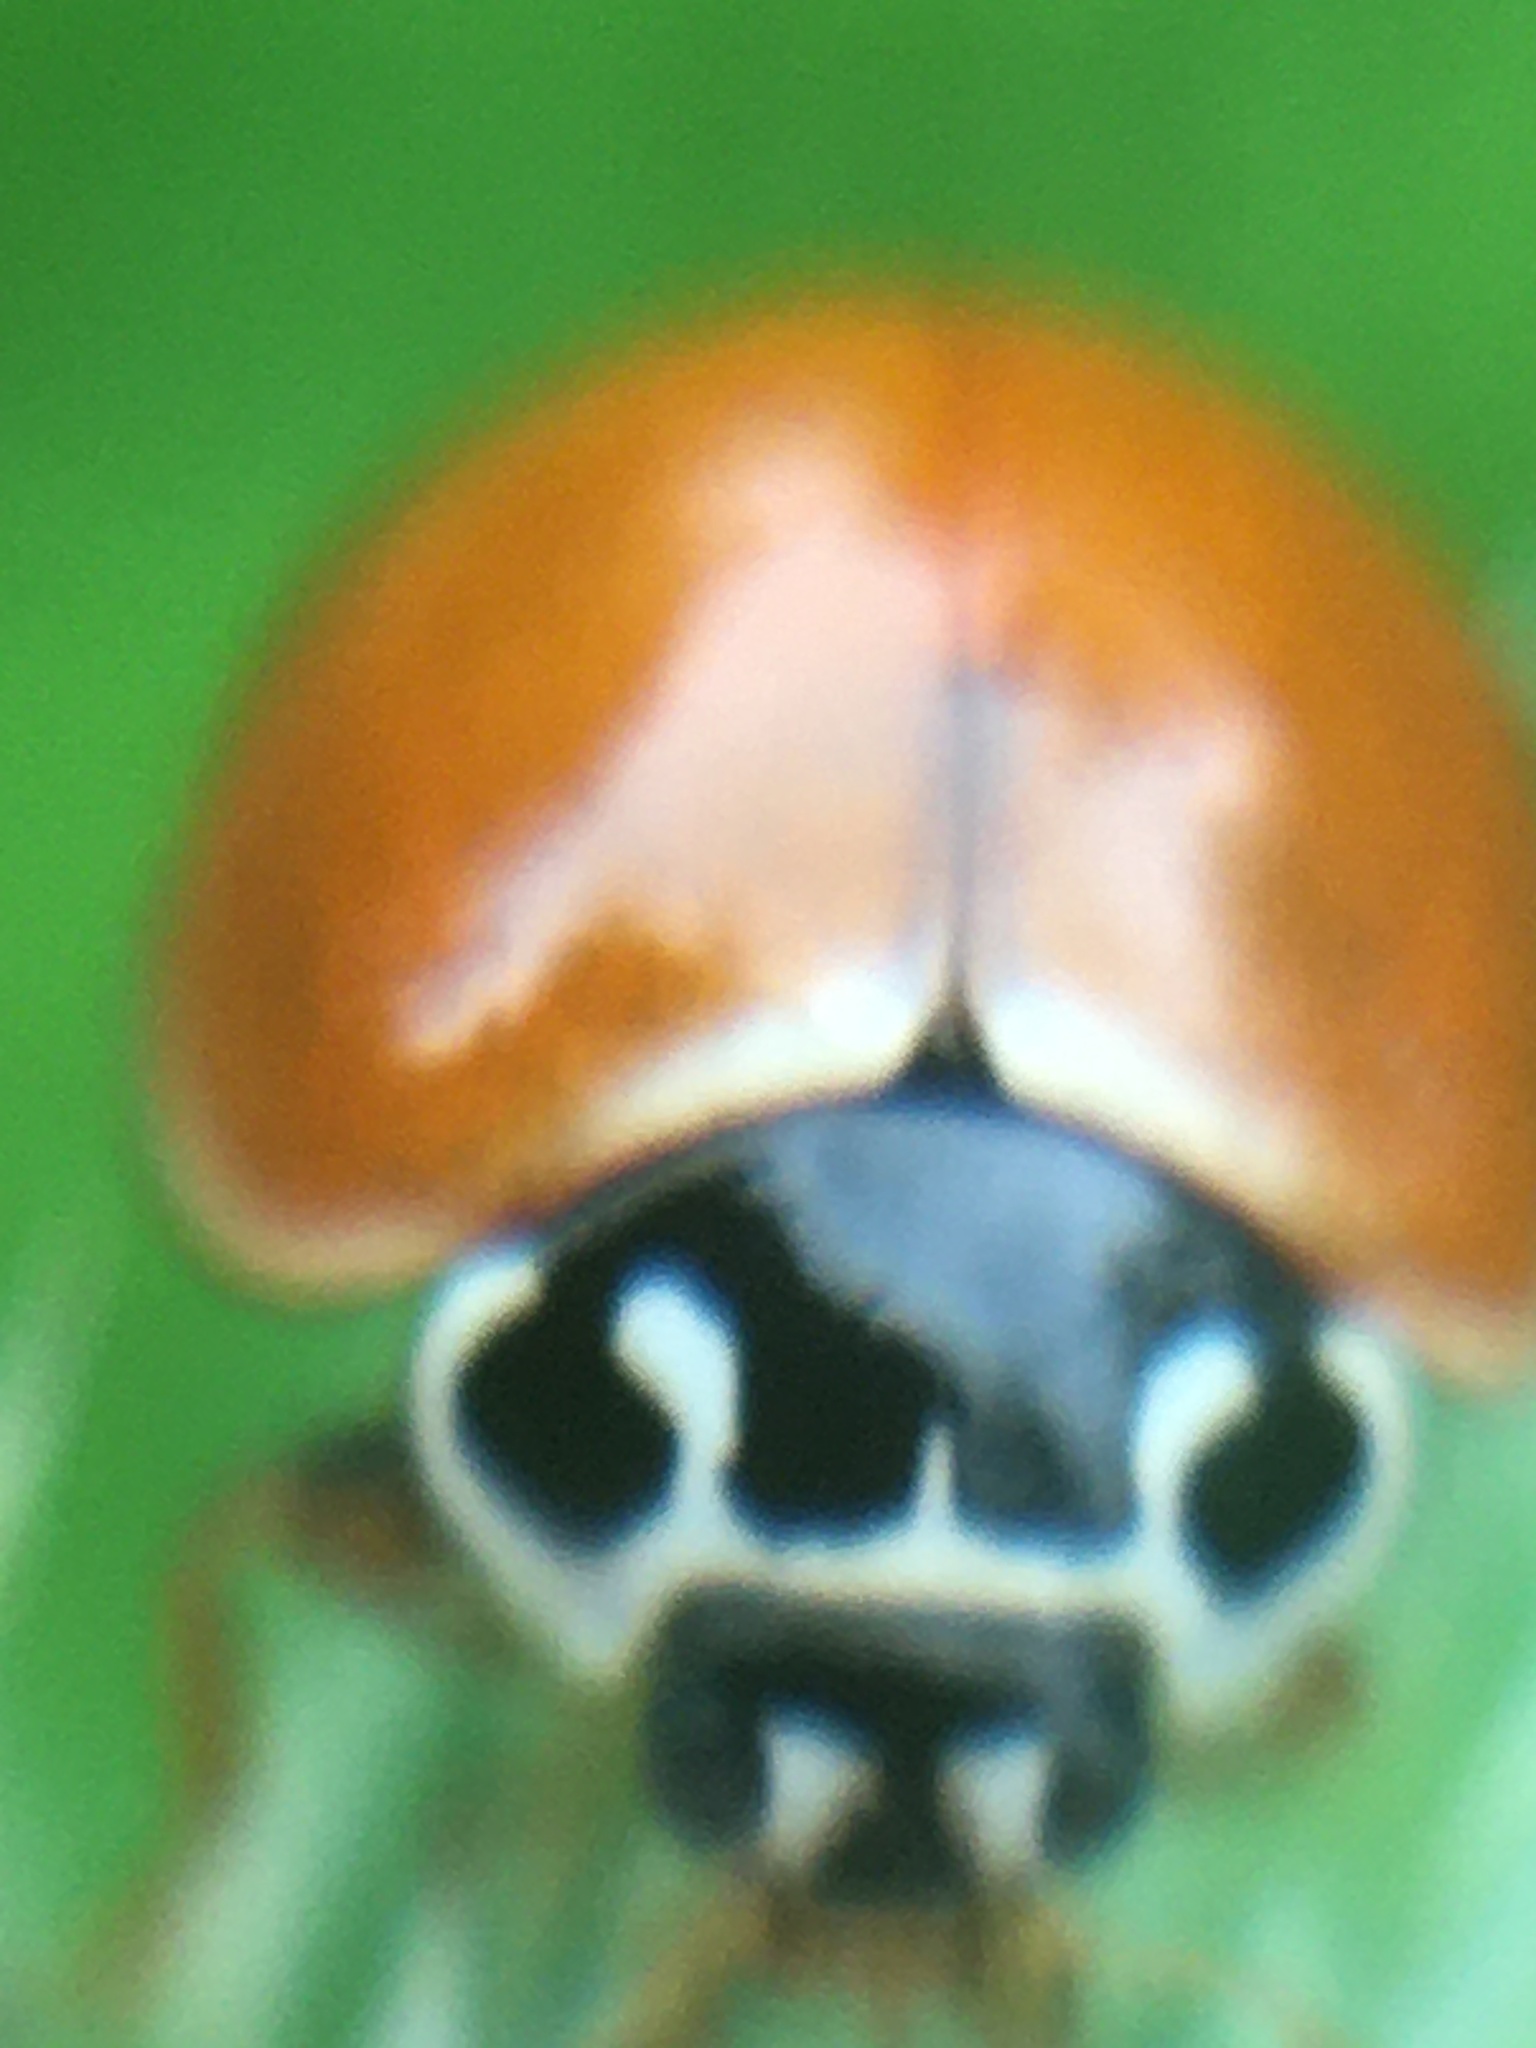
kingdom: Animalia
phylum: Arthropoda
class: Insecta
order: Coleoptera
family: Coccinellidae
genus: Cycloneda
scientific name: Cycloneda munda
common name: Polished lady beetle
